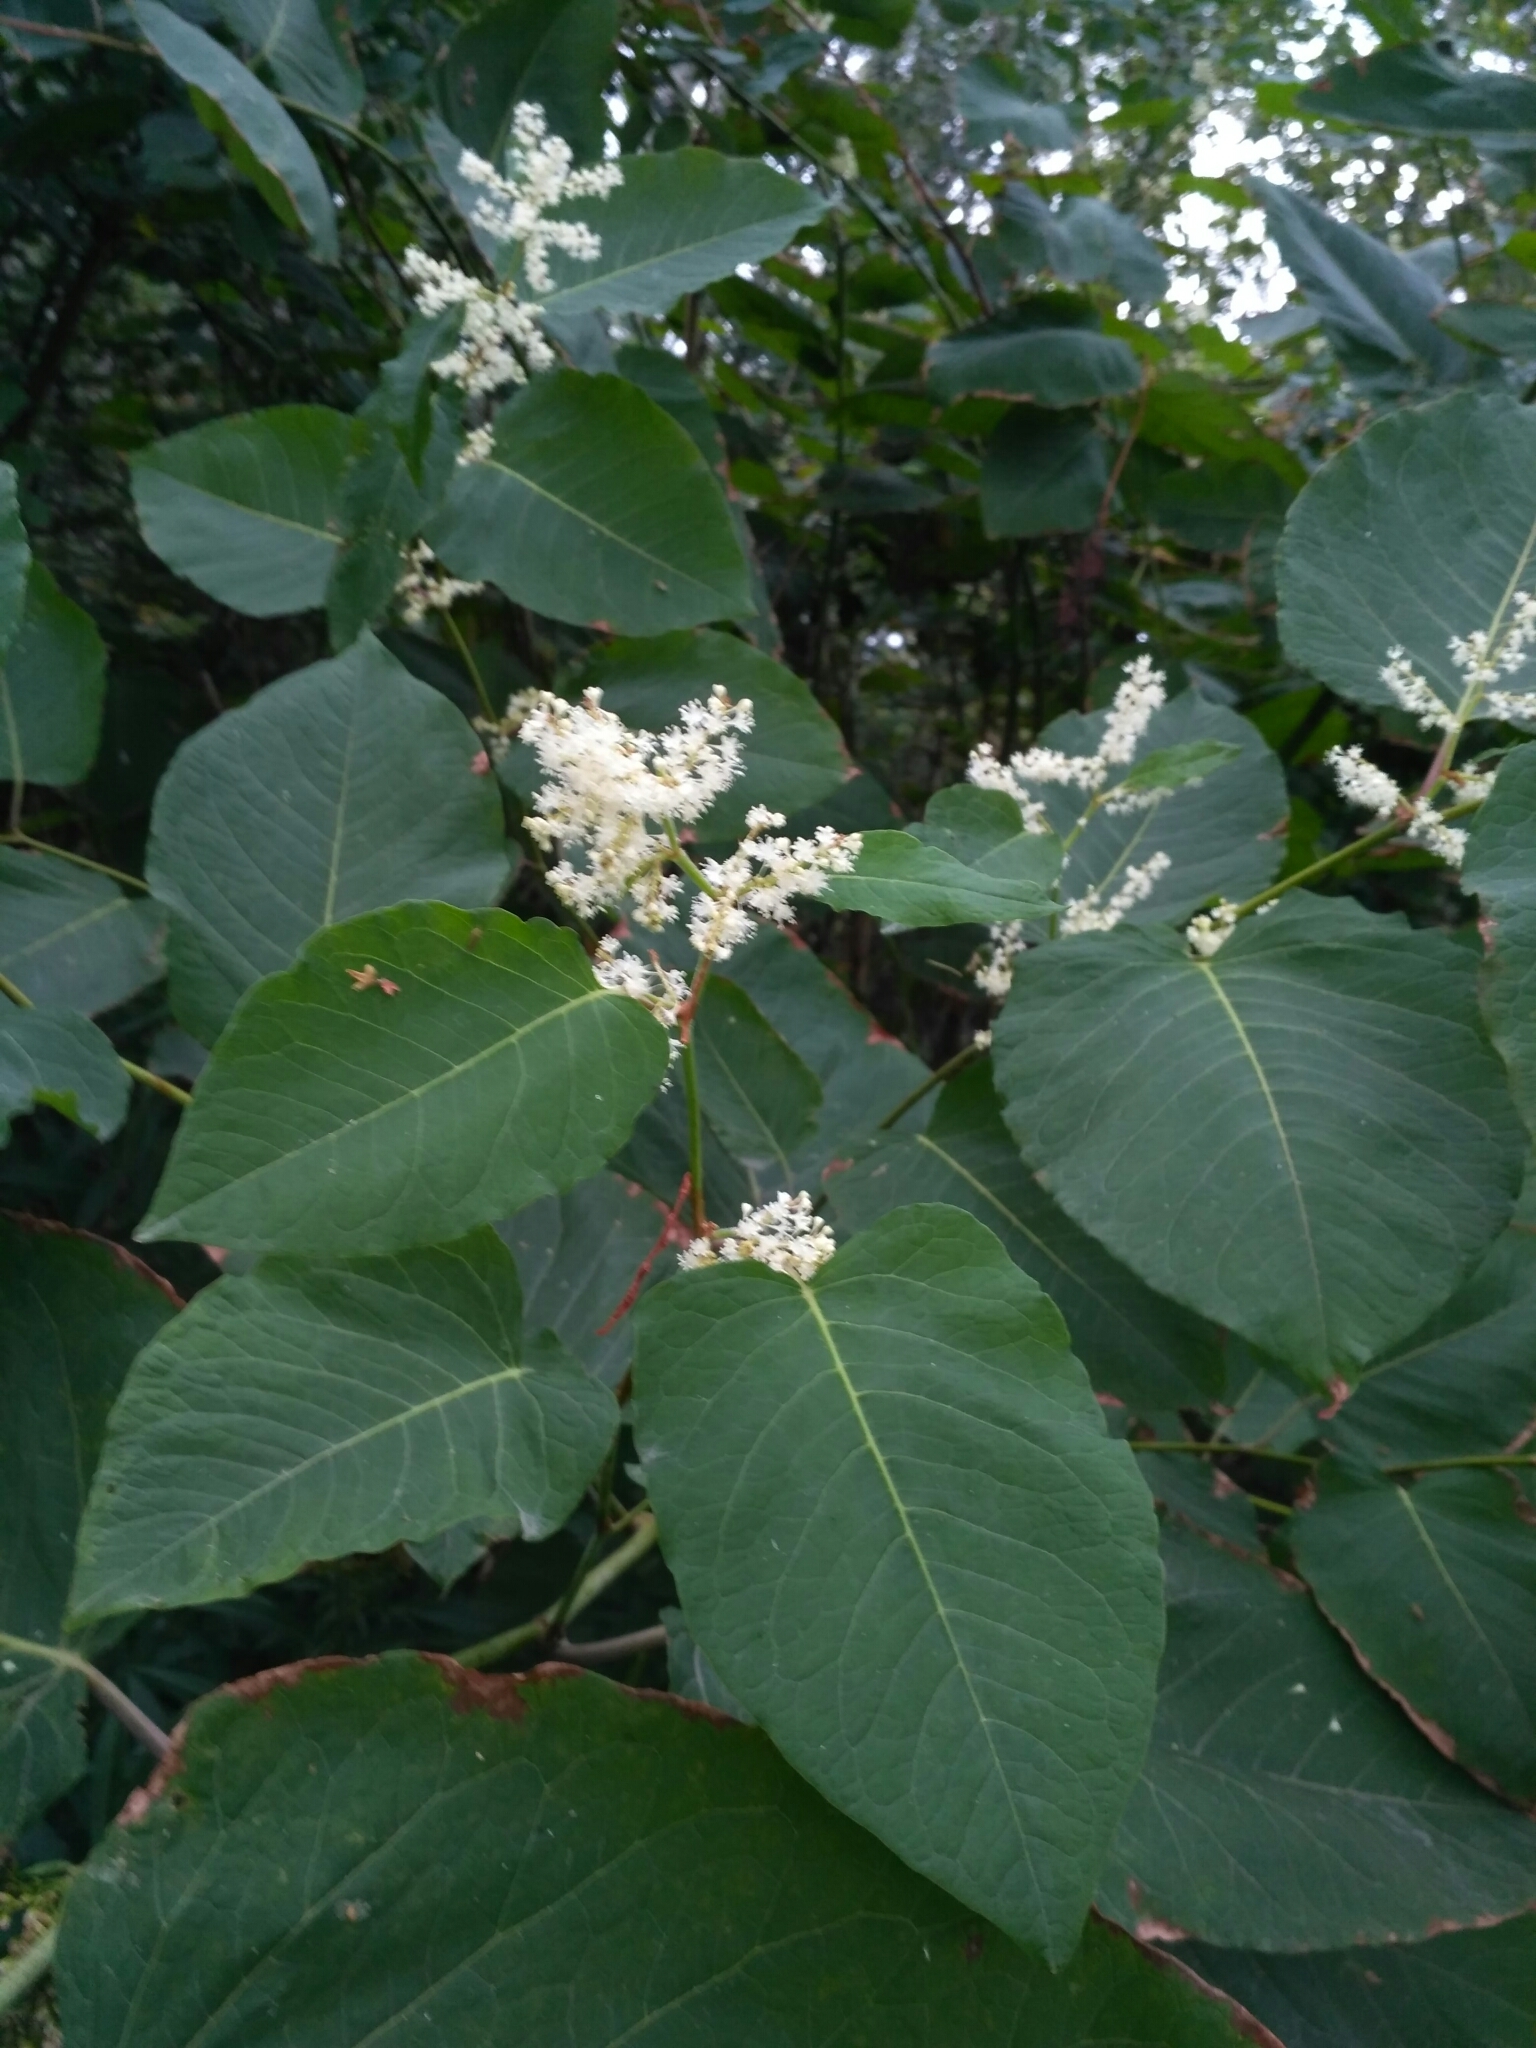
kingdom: Plantae
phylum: Tracheophyta
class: Magnoliopsida
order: Caryophyllales
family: Polygonaceae
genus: Reynoutria
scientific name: Reynoutria bohemica
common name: Bohemian knotweed
